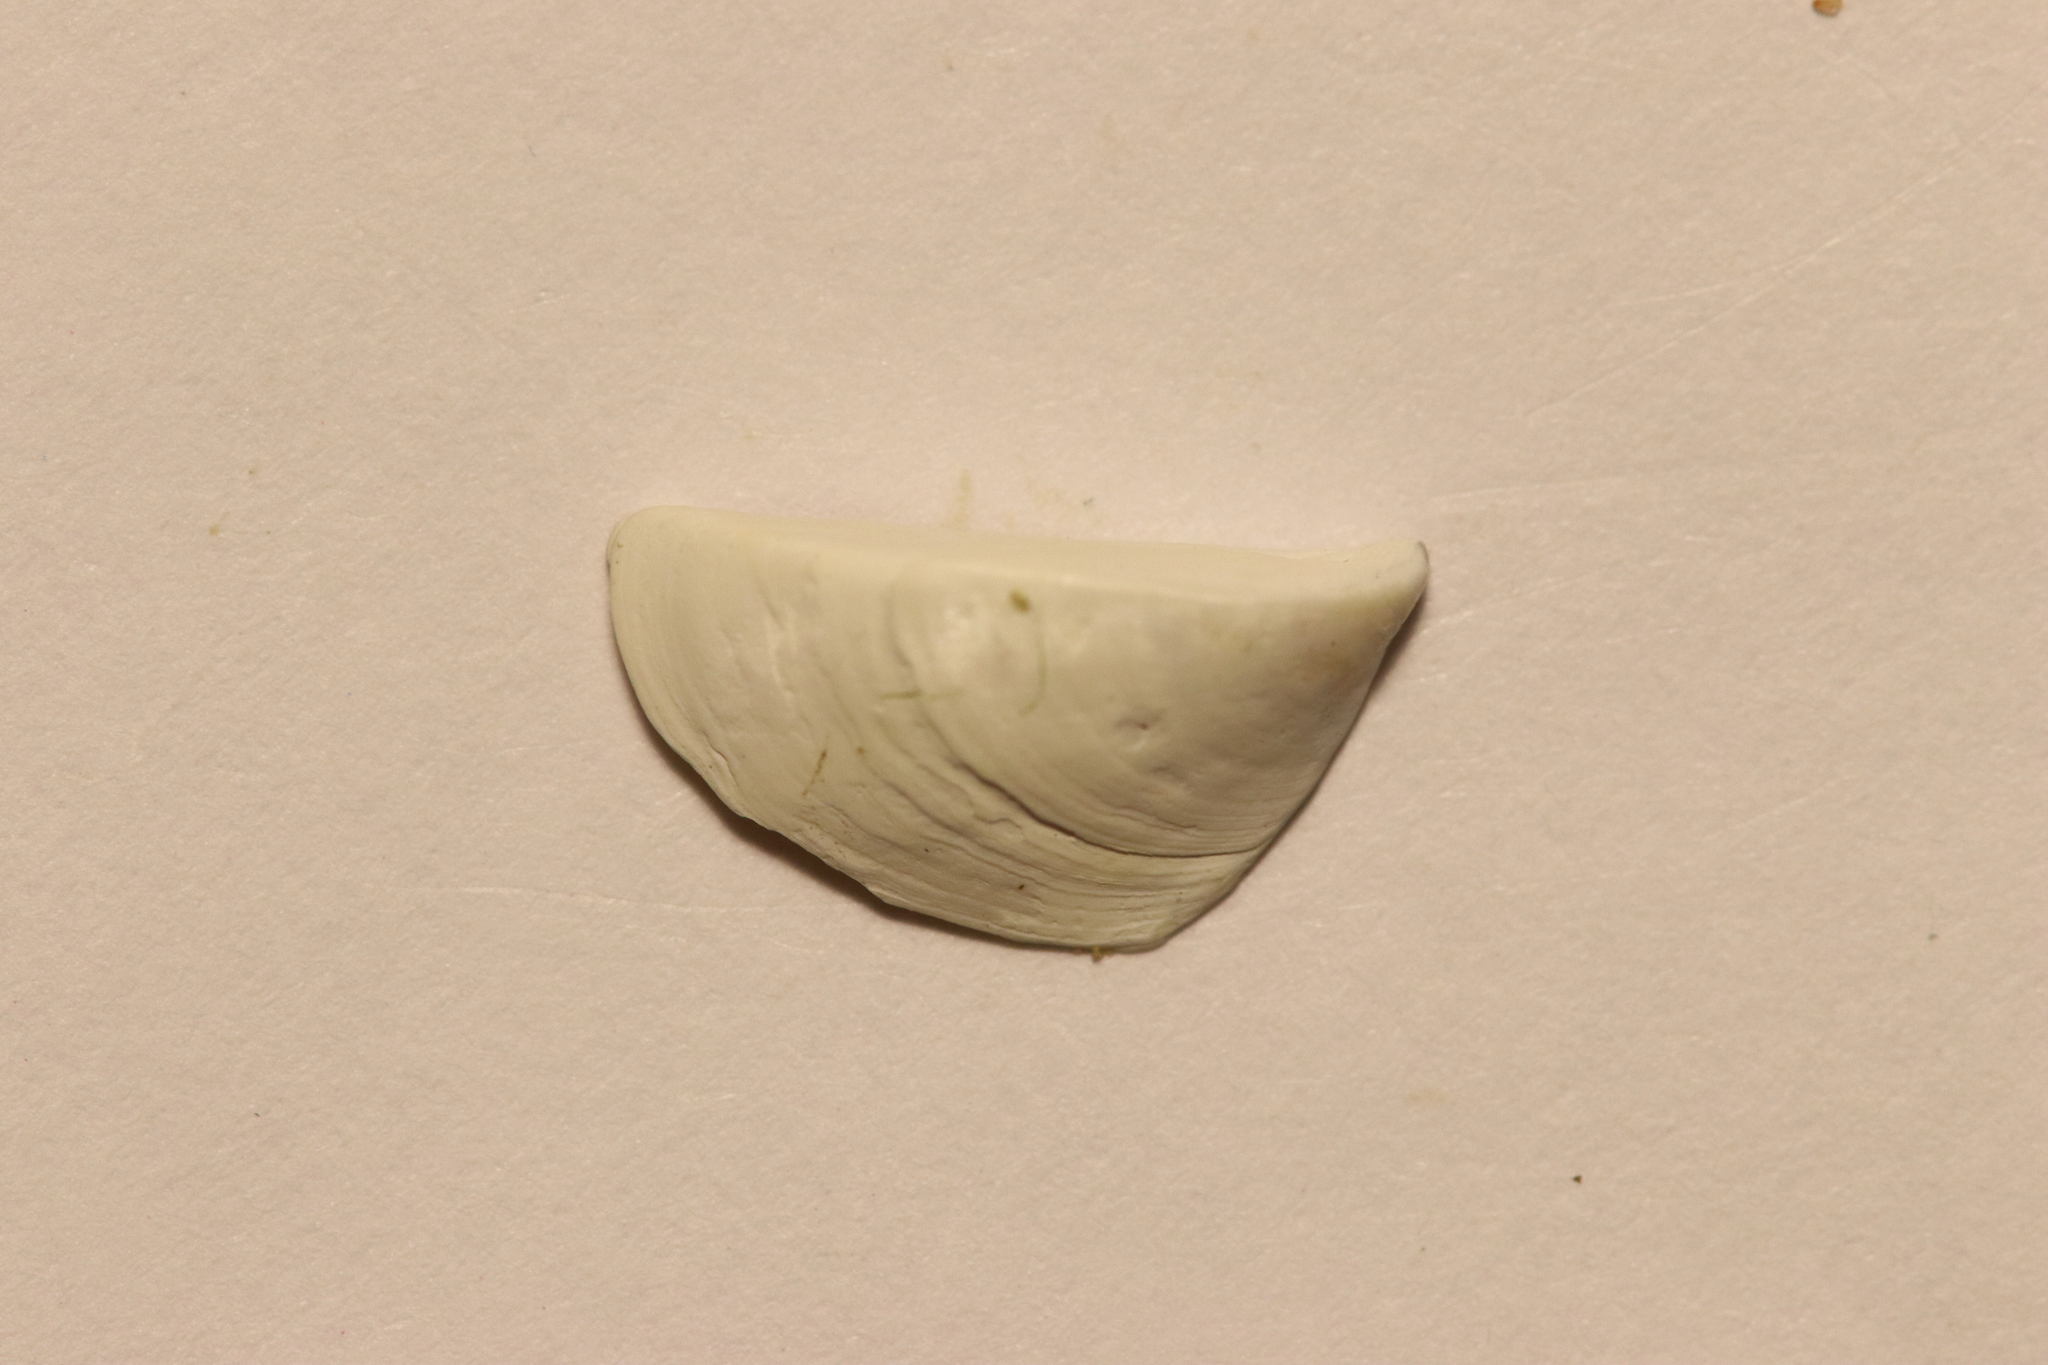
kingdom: Animalia
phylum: Mollusca
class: Bivalvia
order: Myida
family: Dreissenidae
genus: Dreissena
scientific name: Dreissena polymorpha
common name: Zebra mussel
